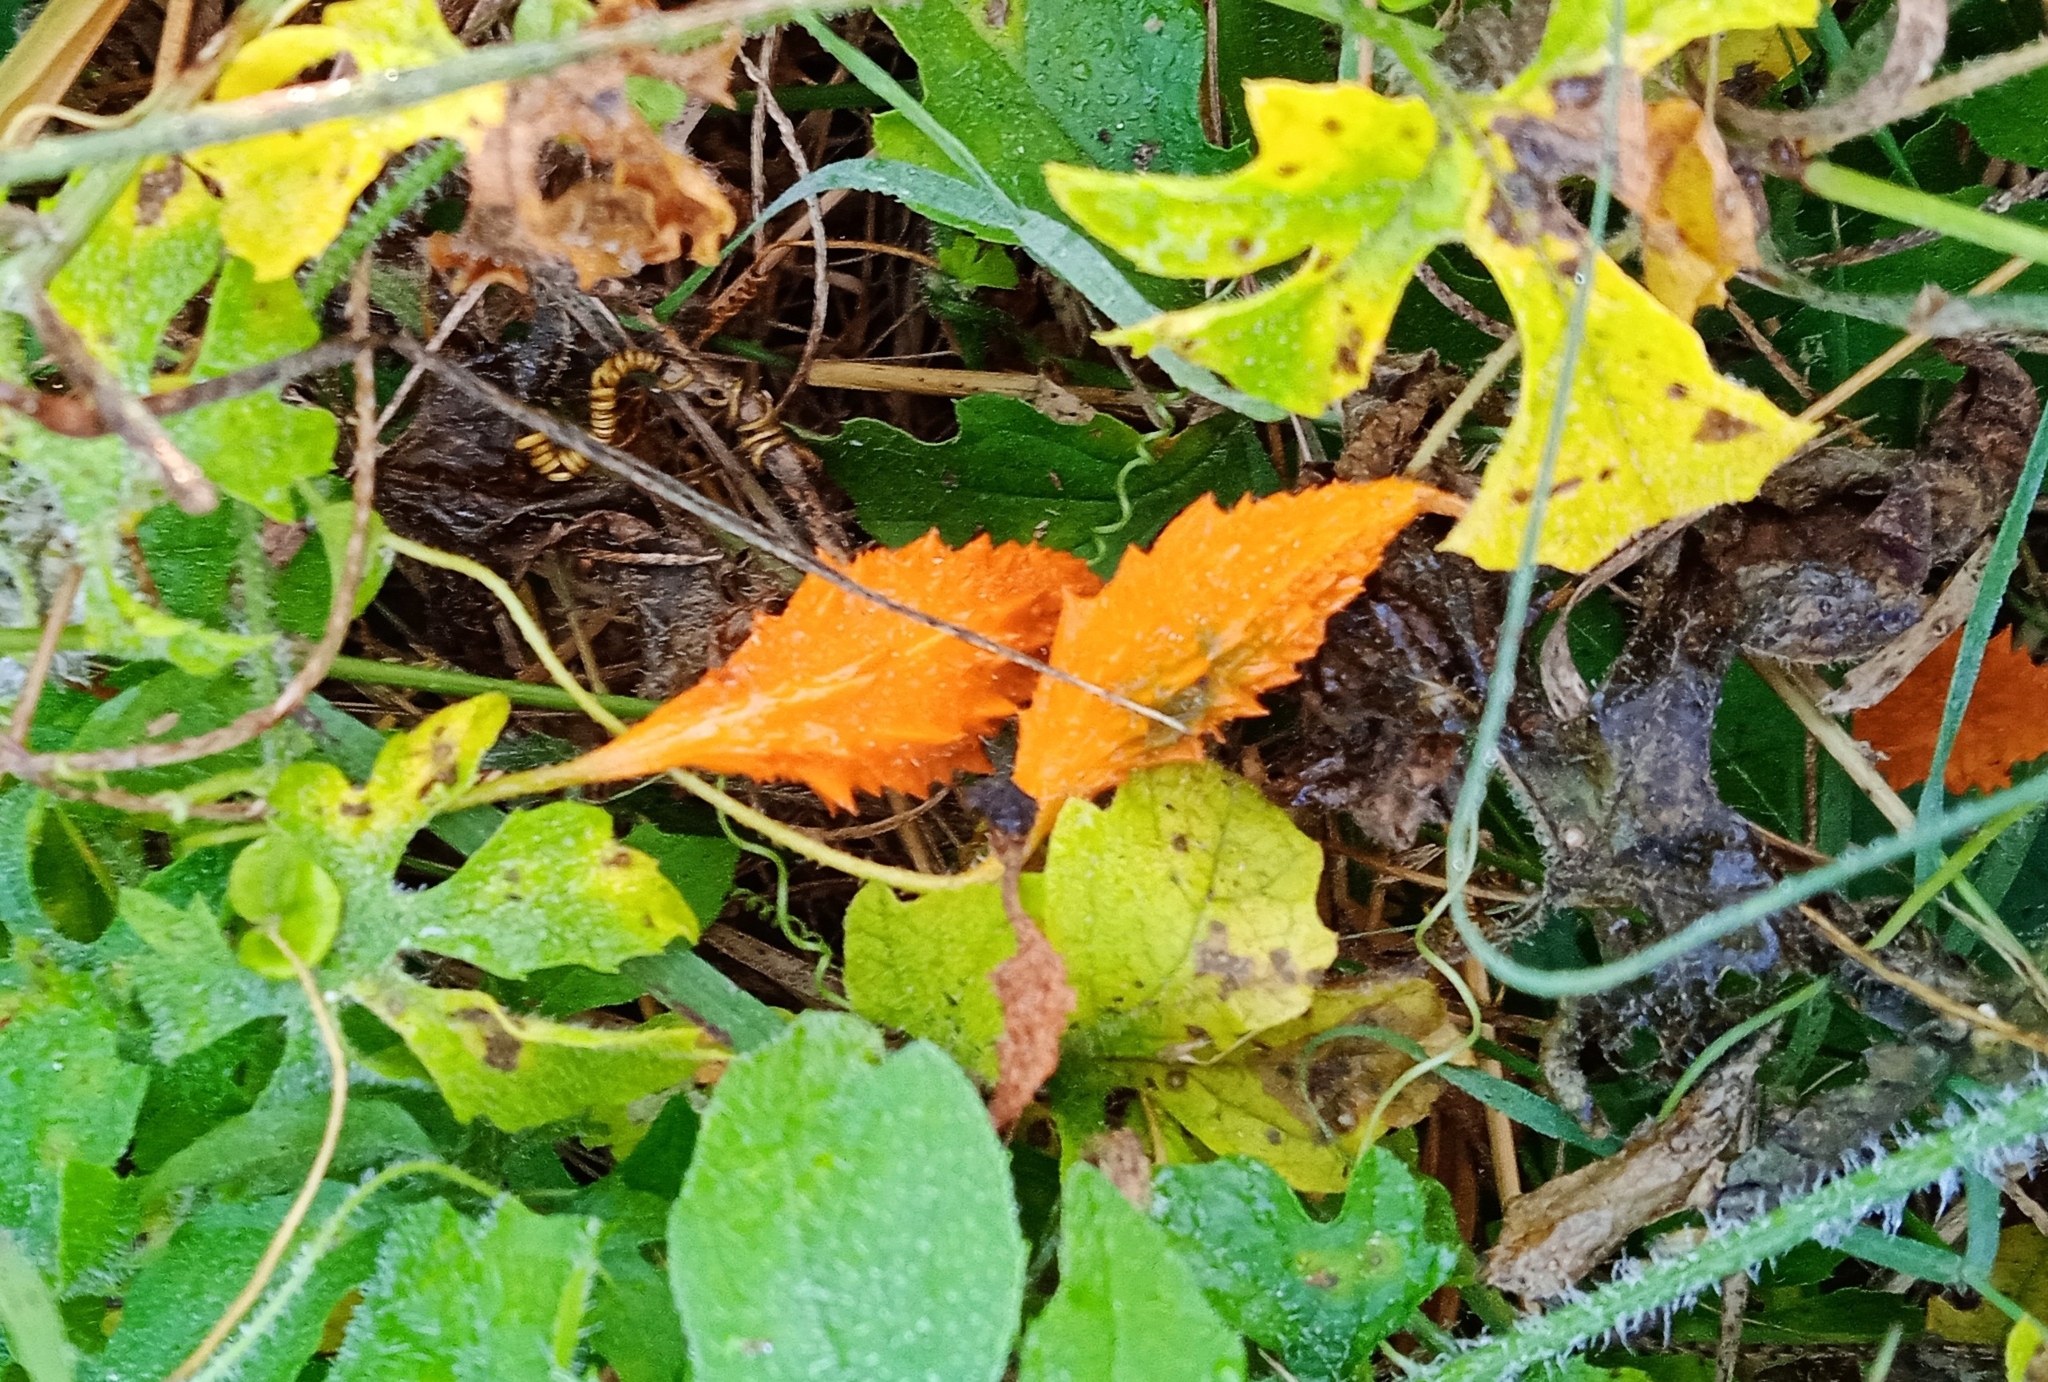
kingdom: Plantae
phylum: Tracheophyta
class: Magnoliopsida
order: Cucurbitales
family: Cucurbitaceae
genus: Momordica
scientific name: Momordica charantia
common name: Balsampear
